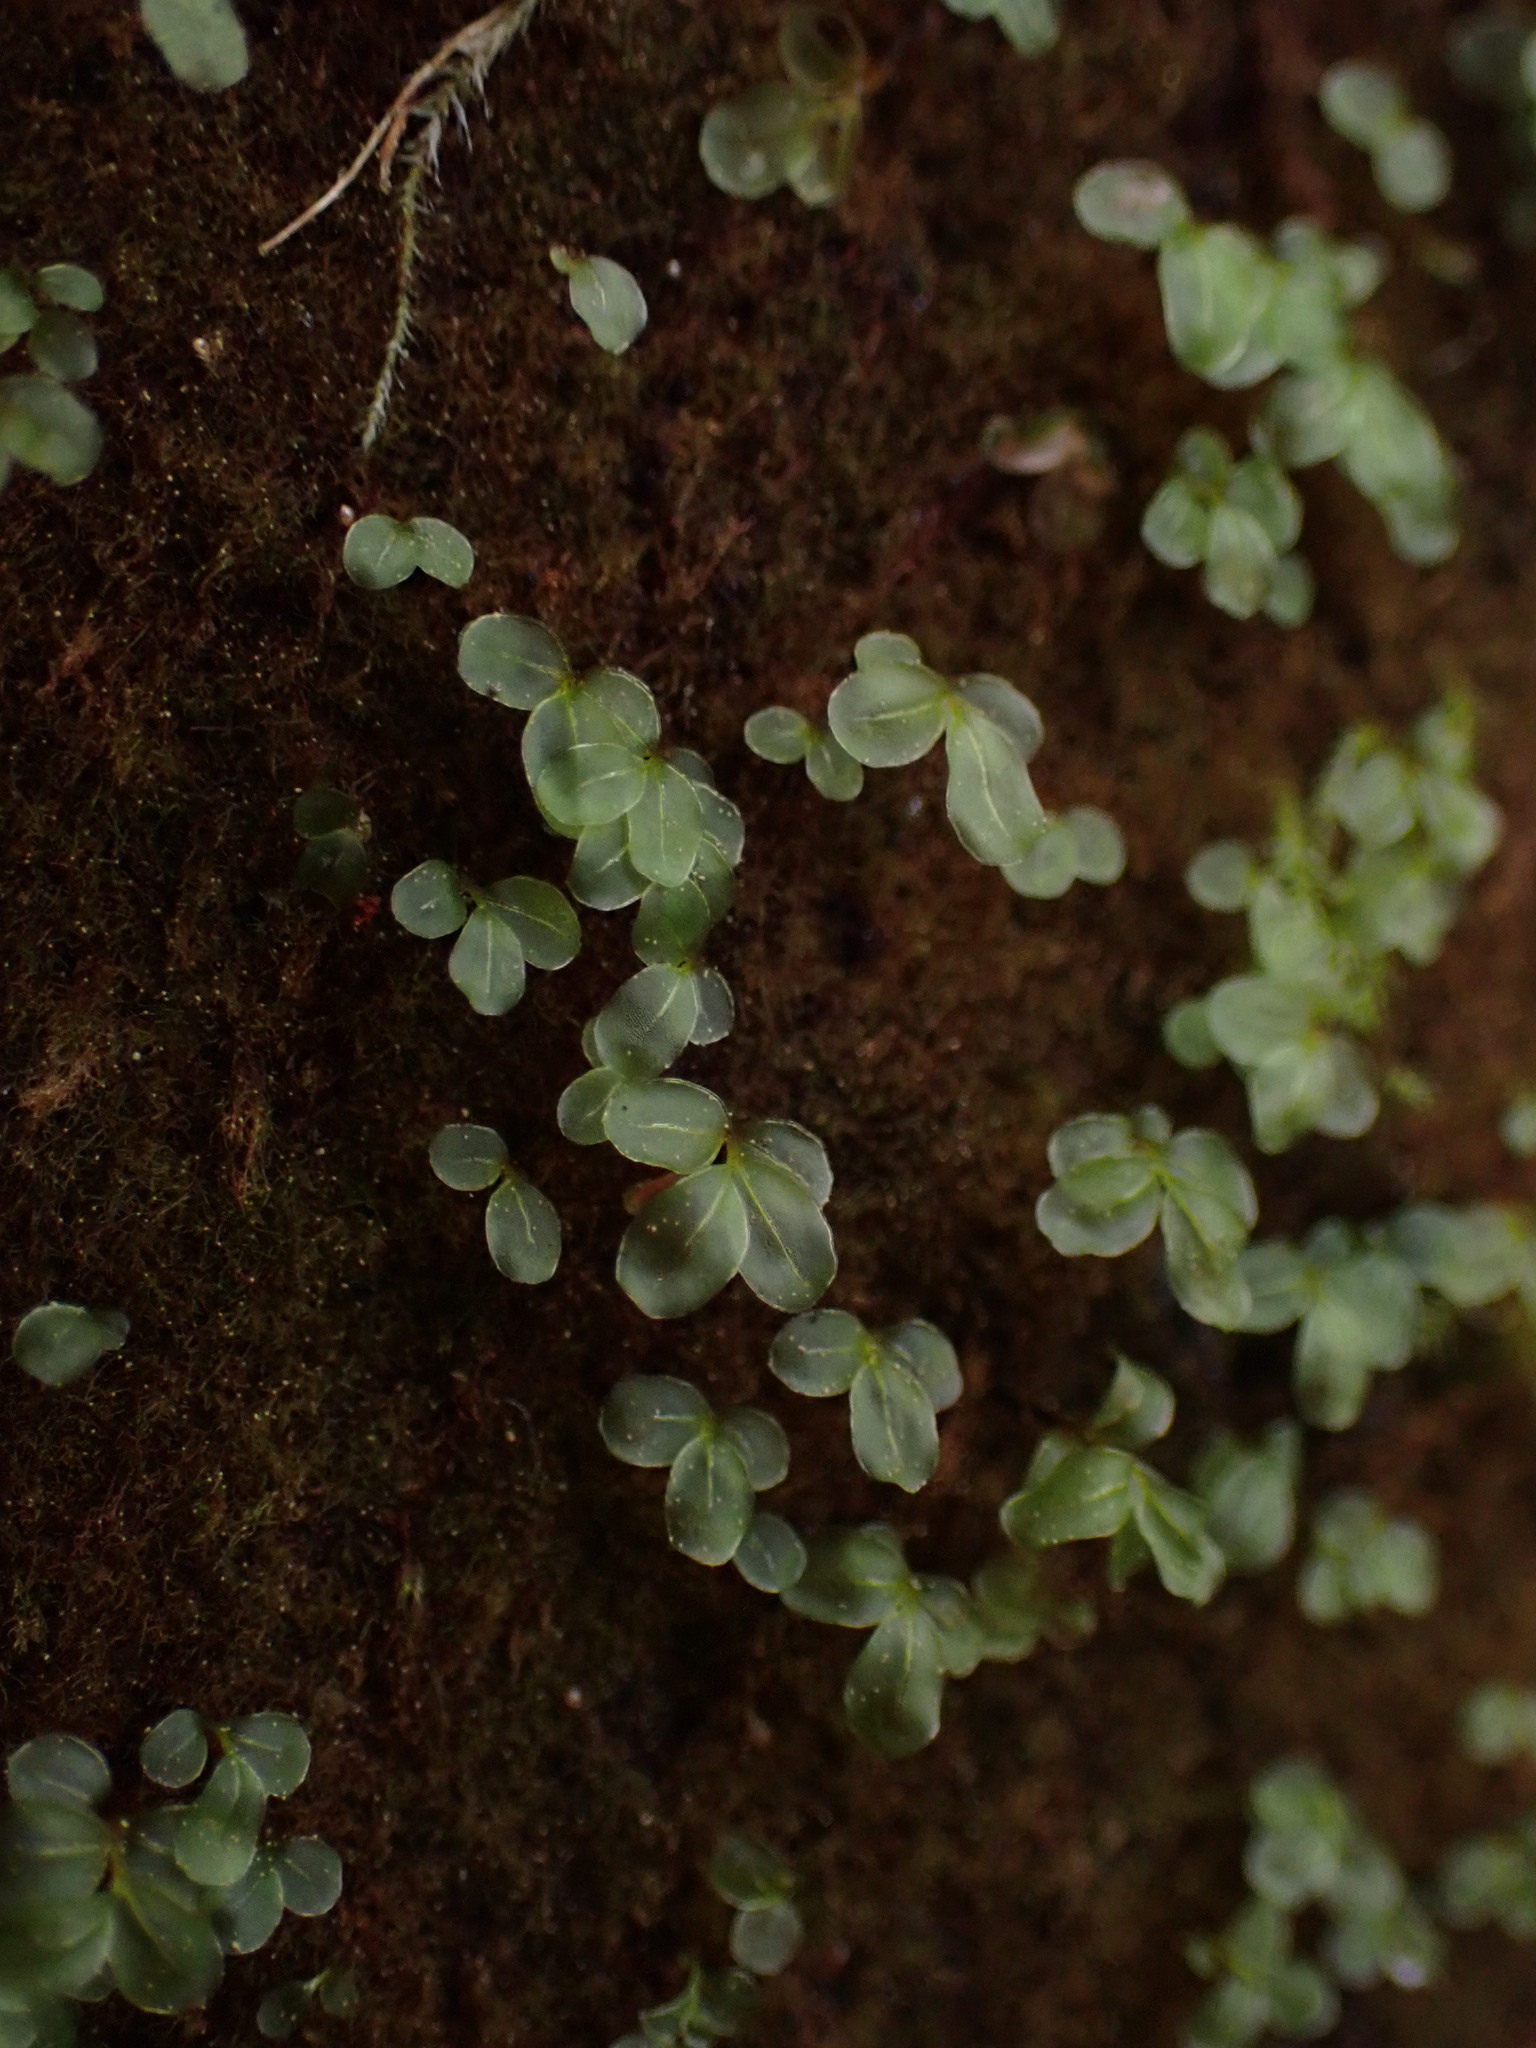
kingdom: Plantae
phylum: Bryophyta
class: Bryopsida
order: Bryales
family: Mniaceae
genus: Rhizomnium
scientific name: Rhizomnium glabrescens
